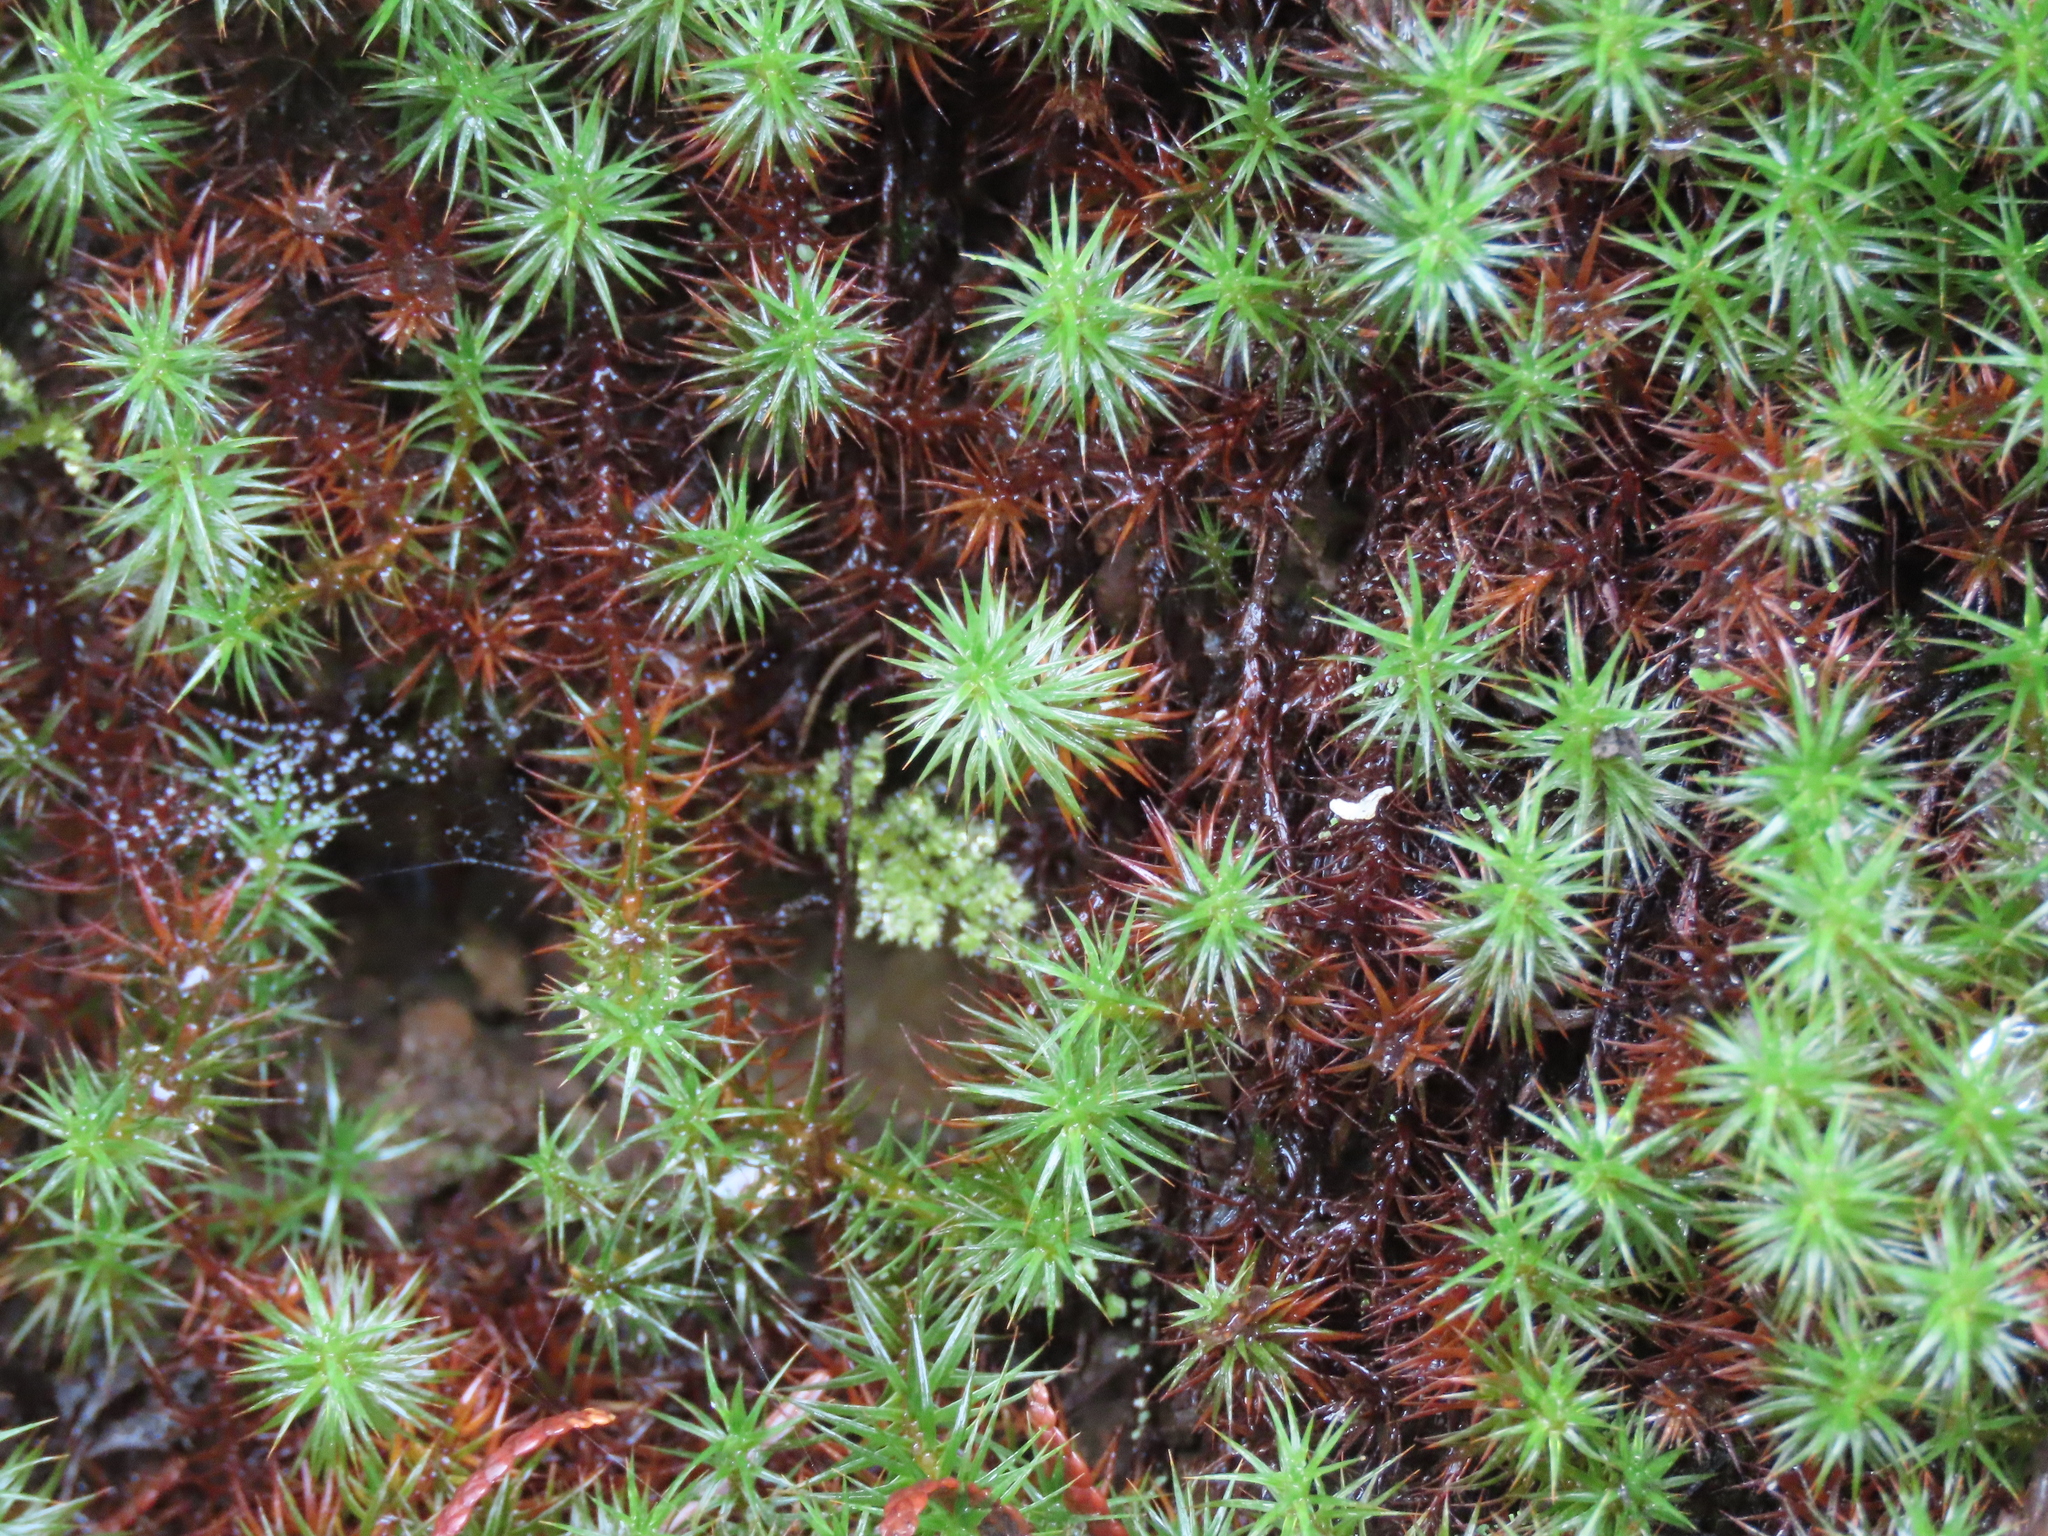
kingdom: Plantae
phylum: Bryophyta
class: Polytrichopsida
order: Polytrichales
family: Polytrichaceae
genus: Polytrichum
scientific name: Polytrichum juniperinum
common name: Juniper haircap moss
